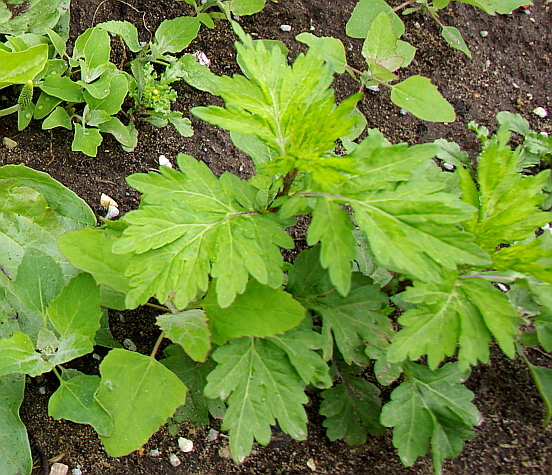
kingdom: Plantae
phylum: Tracheophyta
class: Magnoliopsida
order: Asterales
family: Asteraceae
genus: Artemisia
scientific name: Artemisia vulgaris
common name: Mugwort
